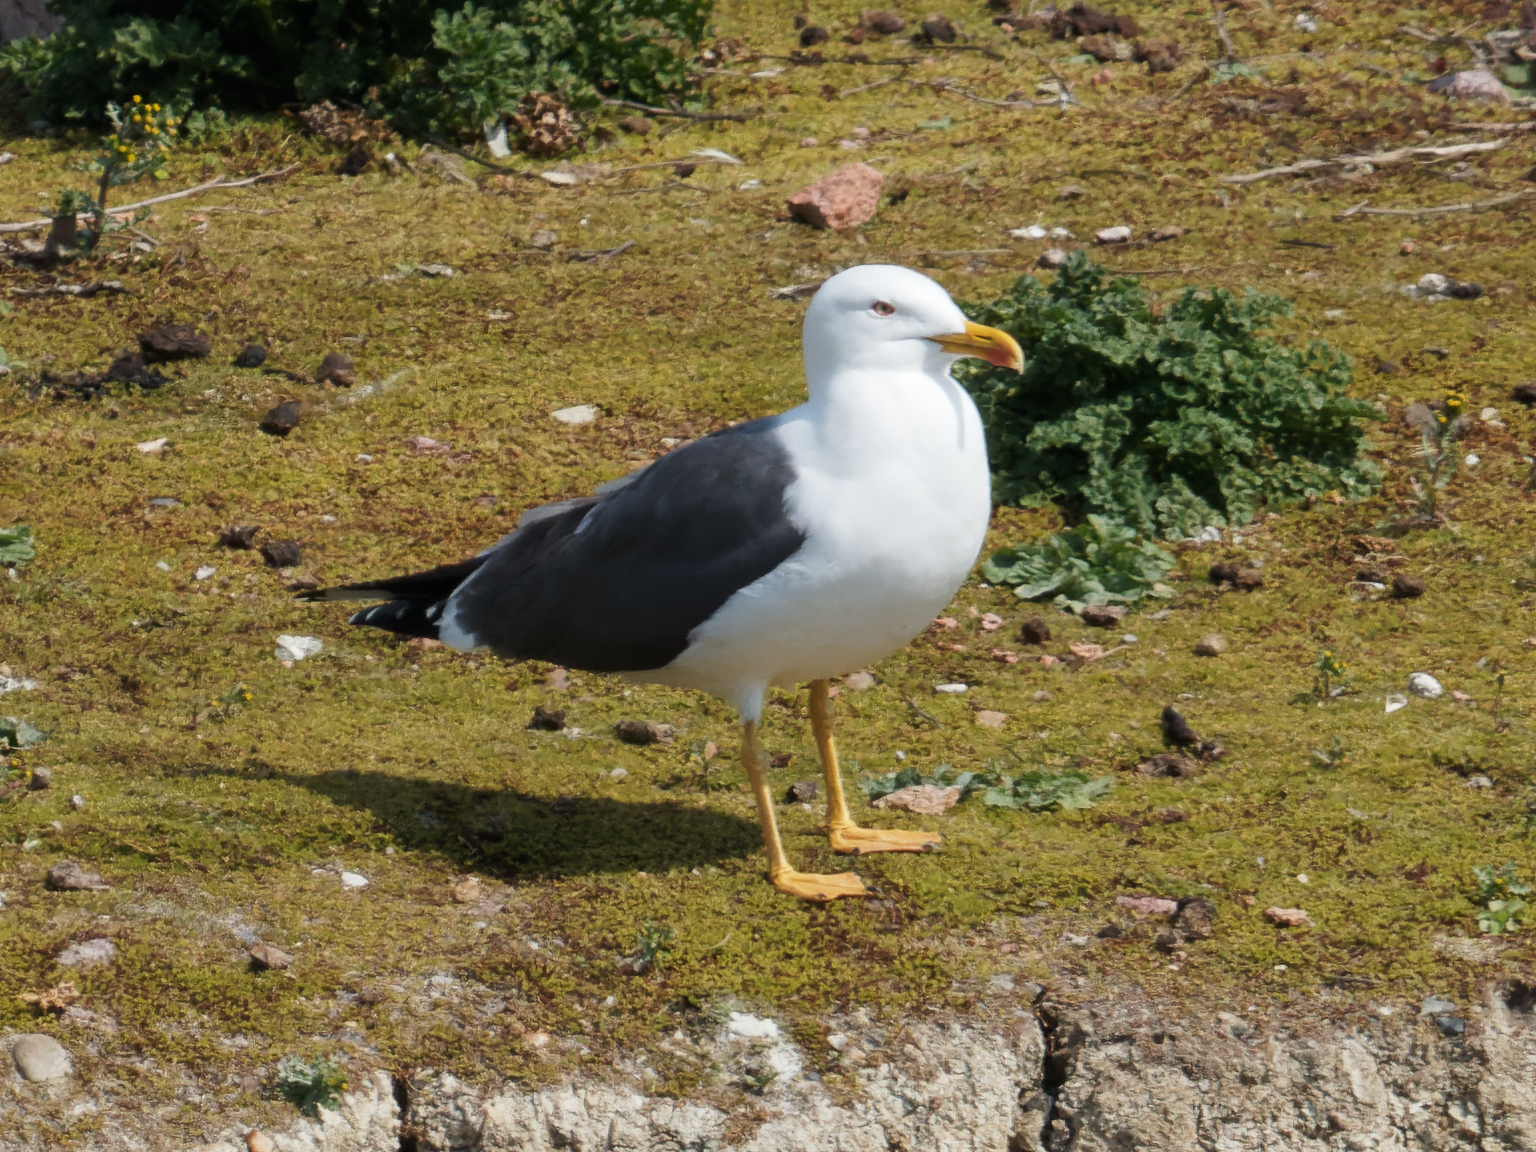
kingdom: Animalia
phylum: Chordata
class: Aves
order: Charadriiformes
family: Laridae
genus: Larus
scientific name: Larus fuscus
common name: Lesser black-backed gull
